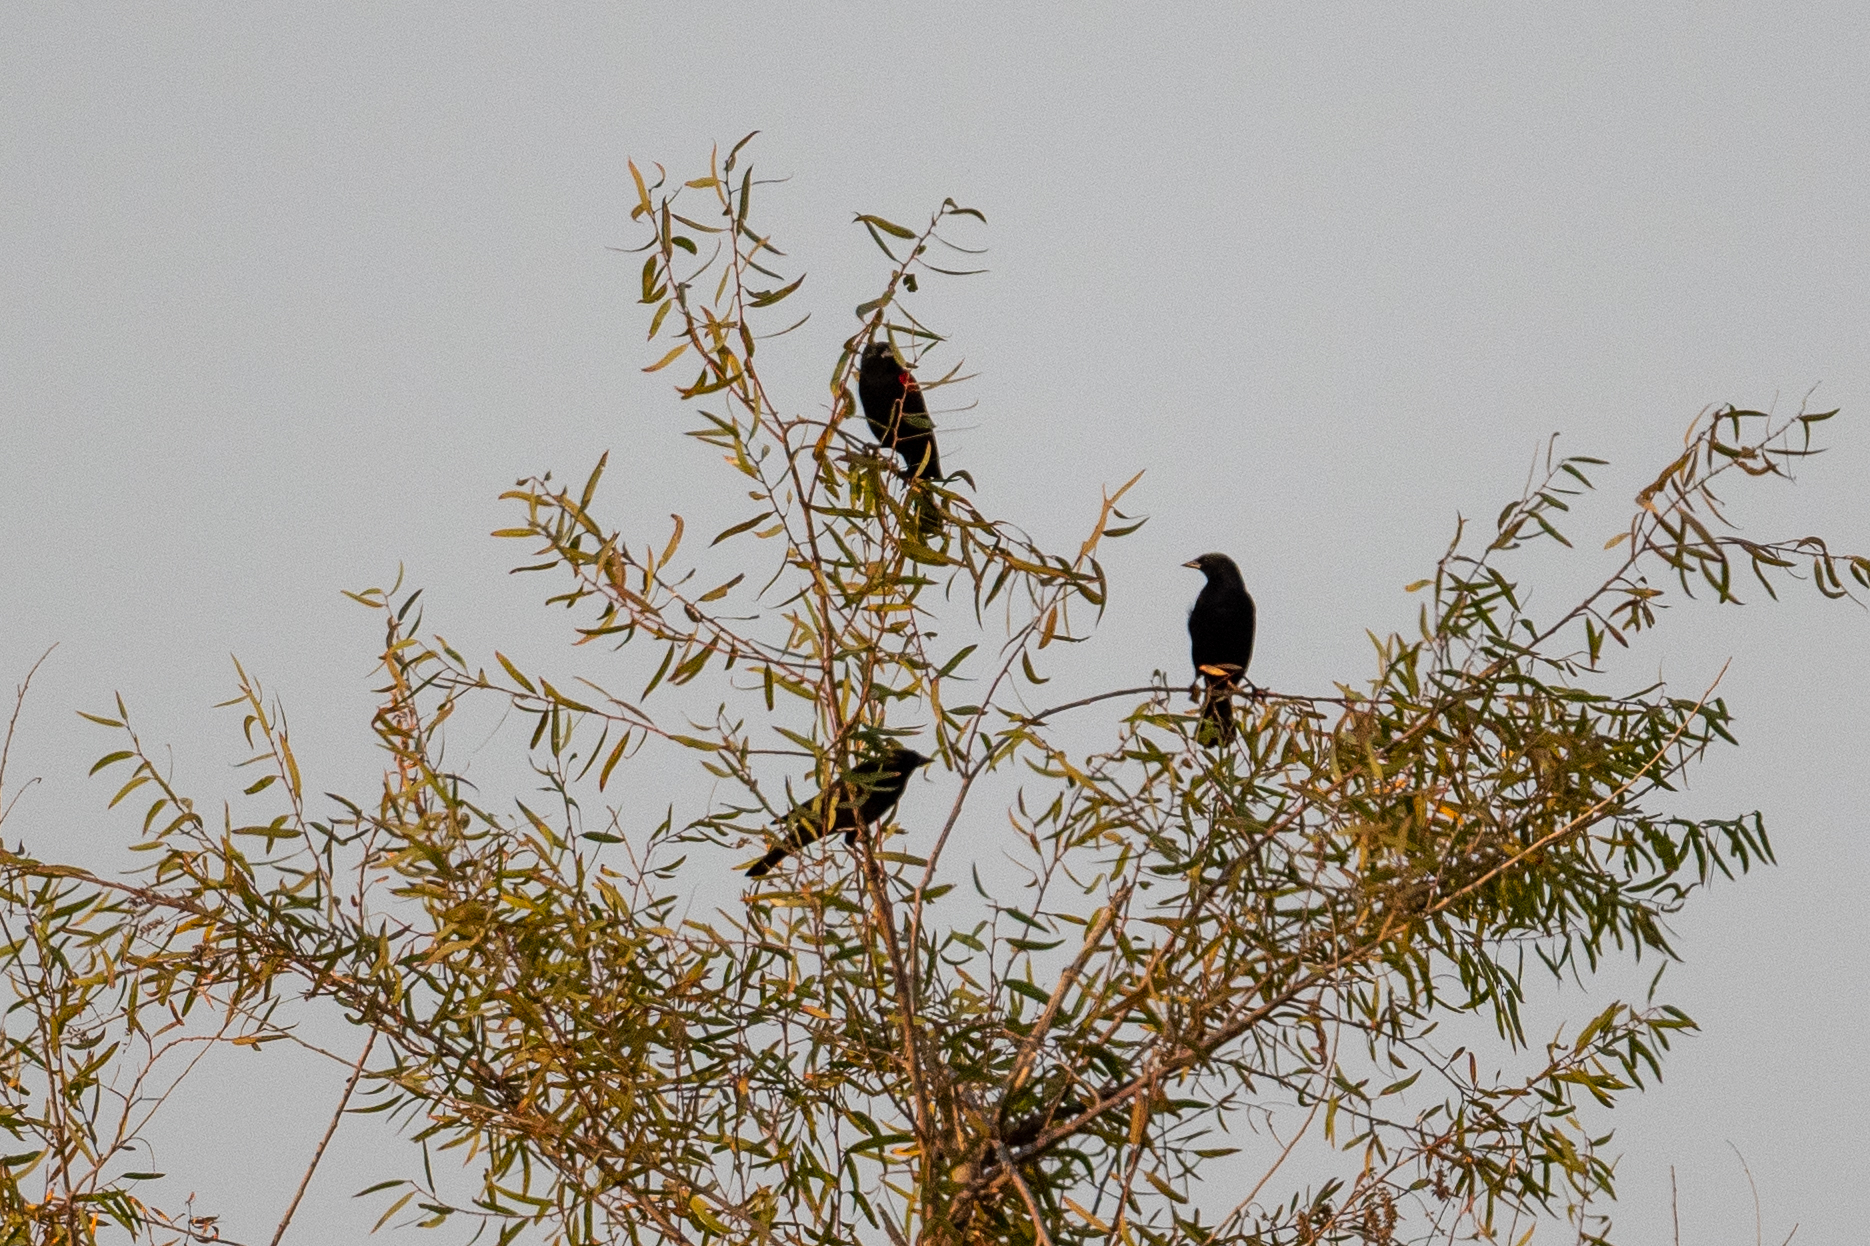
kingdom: Animalia
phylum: Chordata
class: Aves
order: Passeriformes
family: Icteridae
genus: Agelaius
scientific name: Agelaius phoeniceus
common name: Red-winged blackbird
